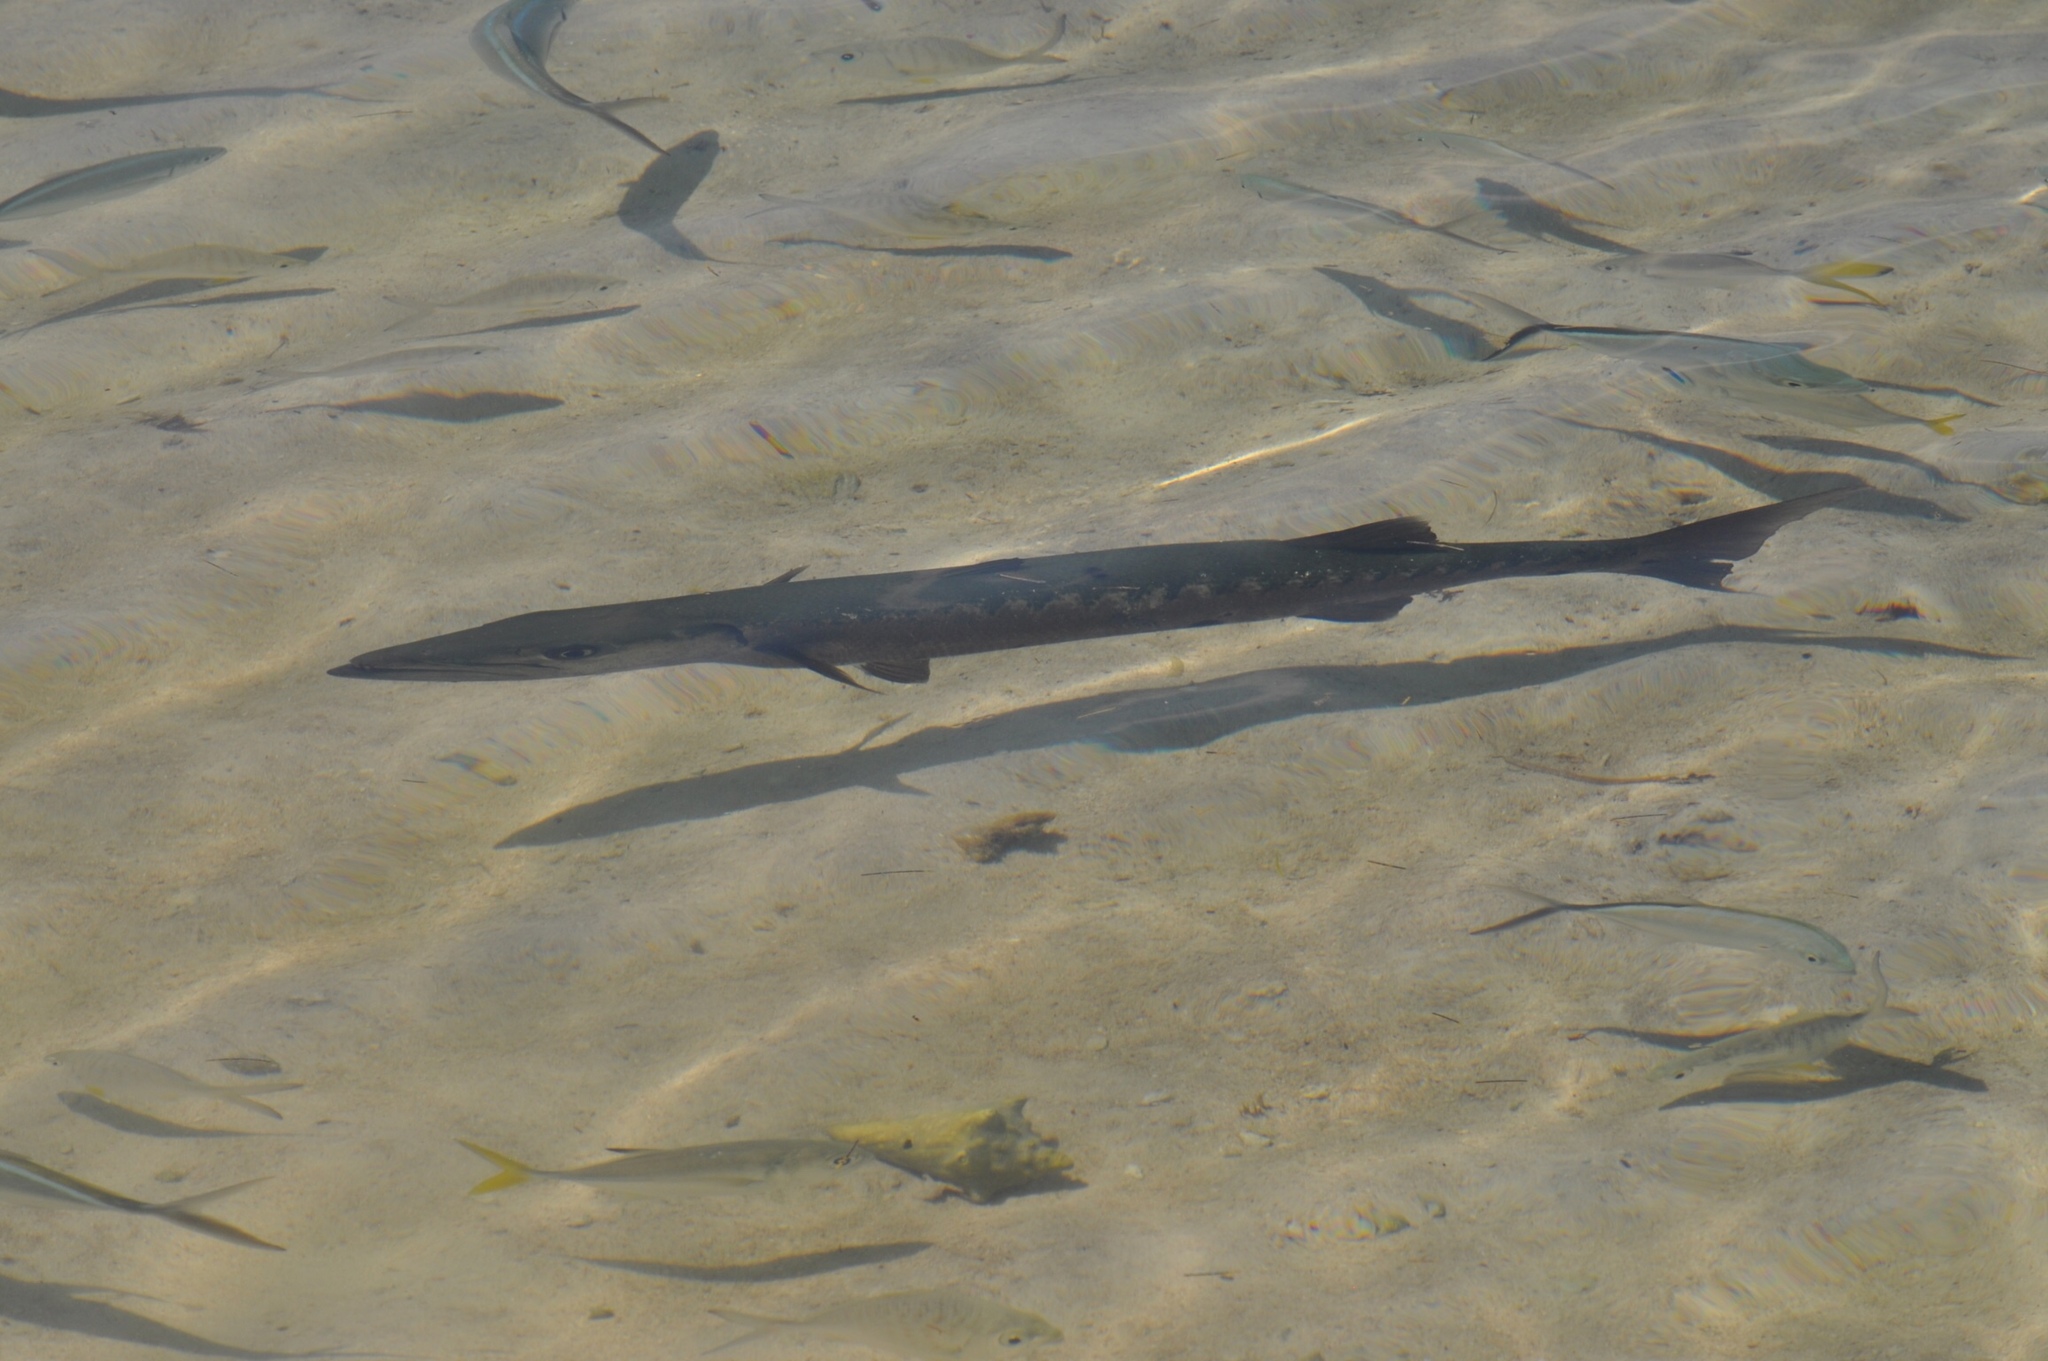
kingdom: Animalia
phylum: Chordata
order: Perciformes
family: Sphyraenidae
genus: Sphyraena
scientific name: Sphyraena barracuda
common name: Great barracuda
